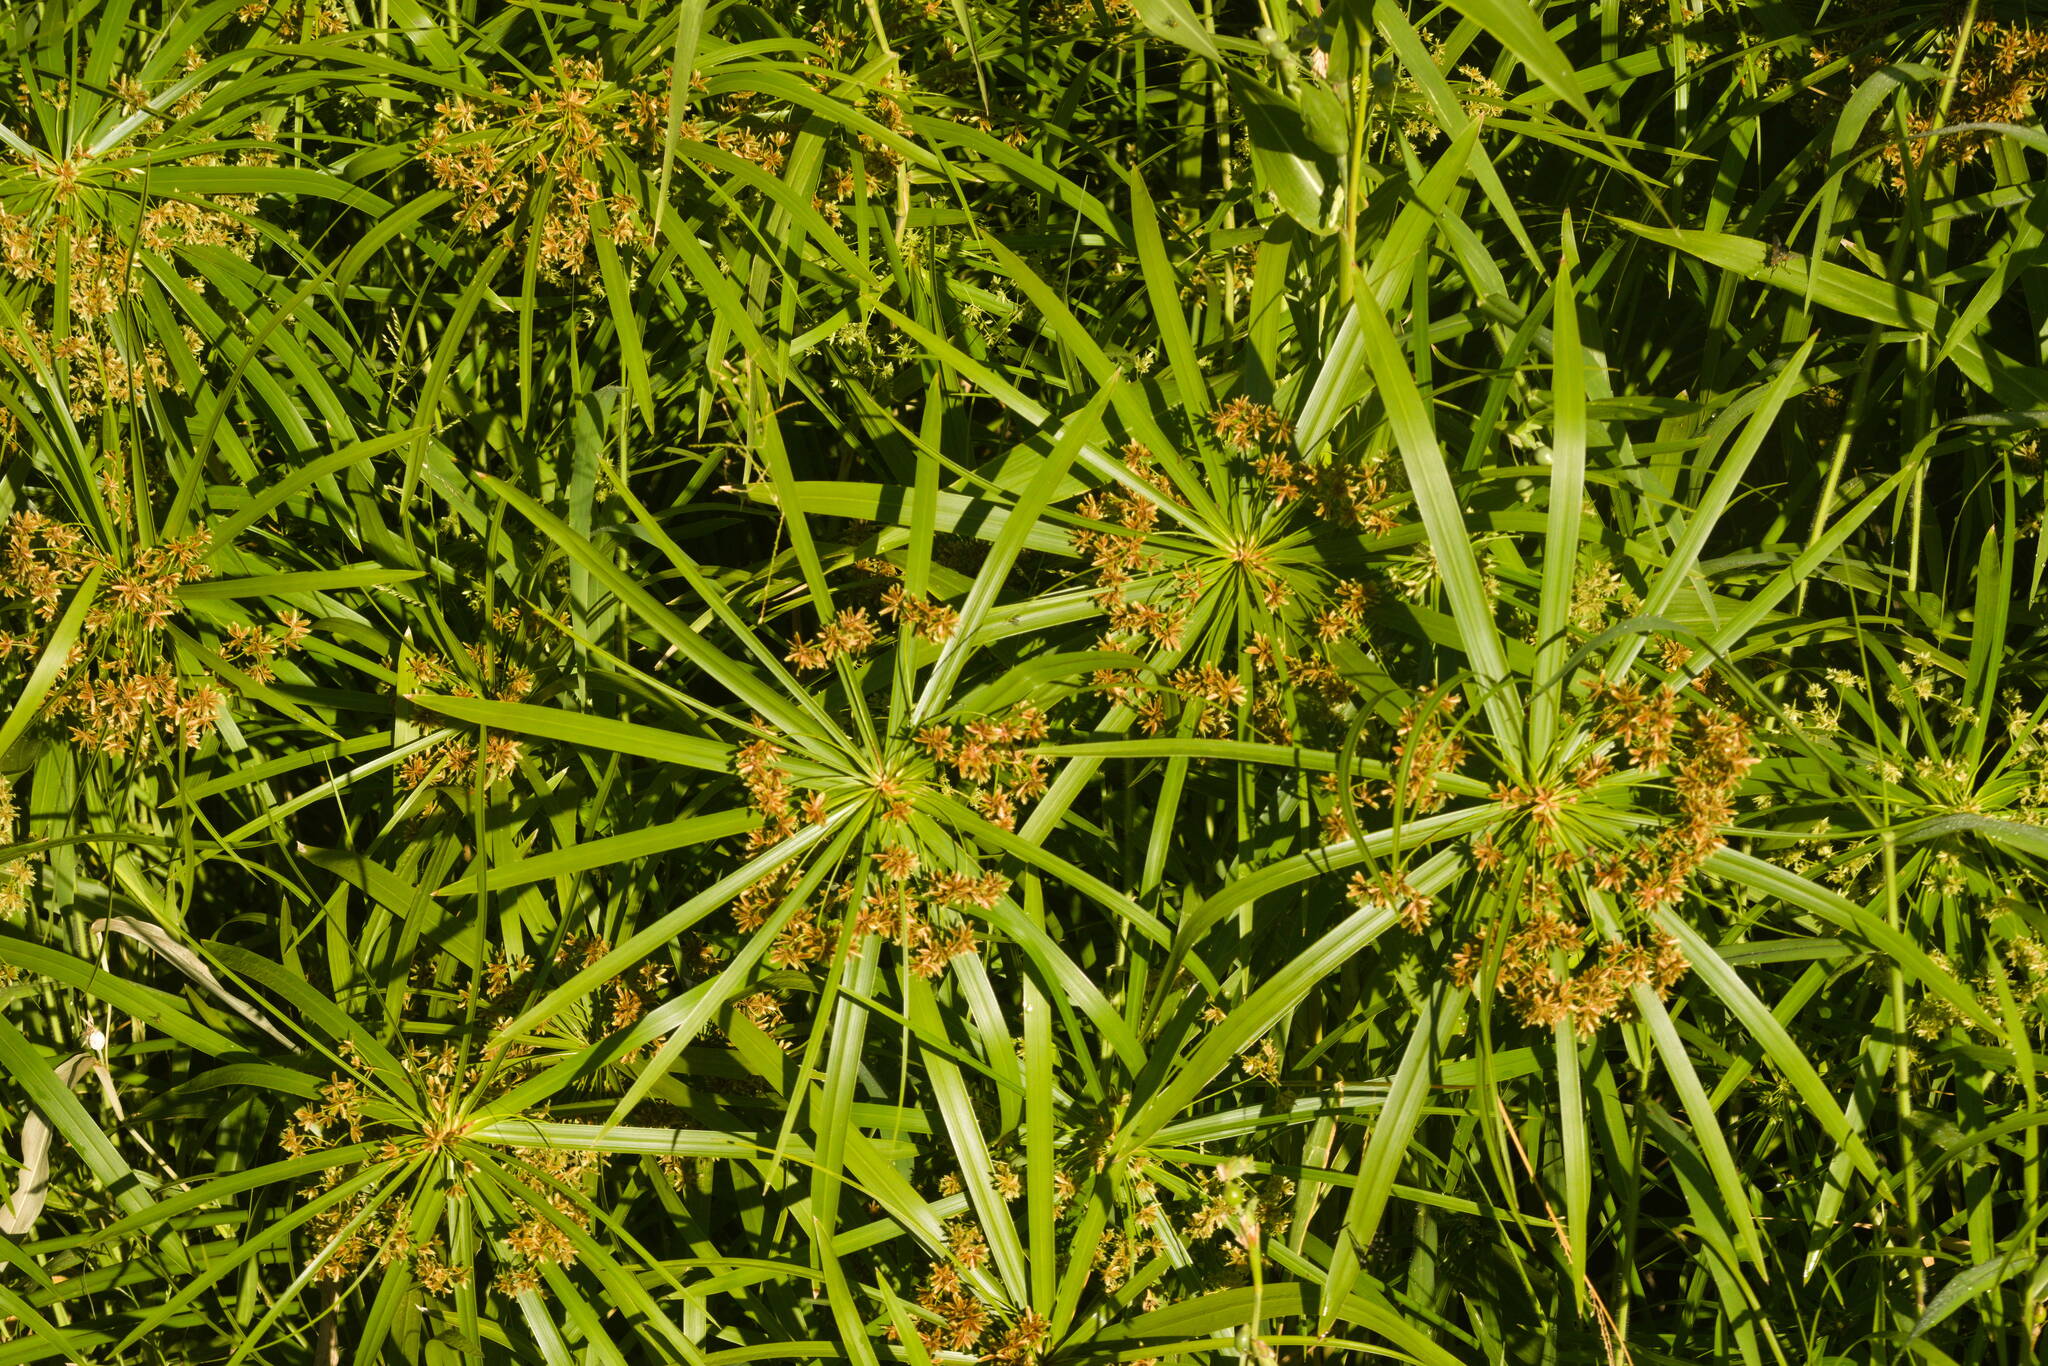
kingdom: Plantae
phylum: Tracheophyta
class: Liliopsida
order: Poales
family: Cyperaceae
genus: Cyperus
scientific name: Cyperus alternifolius
